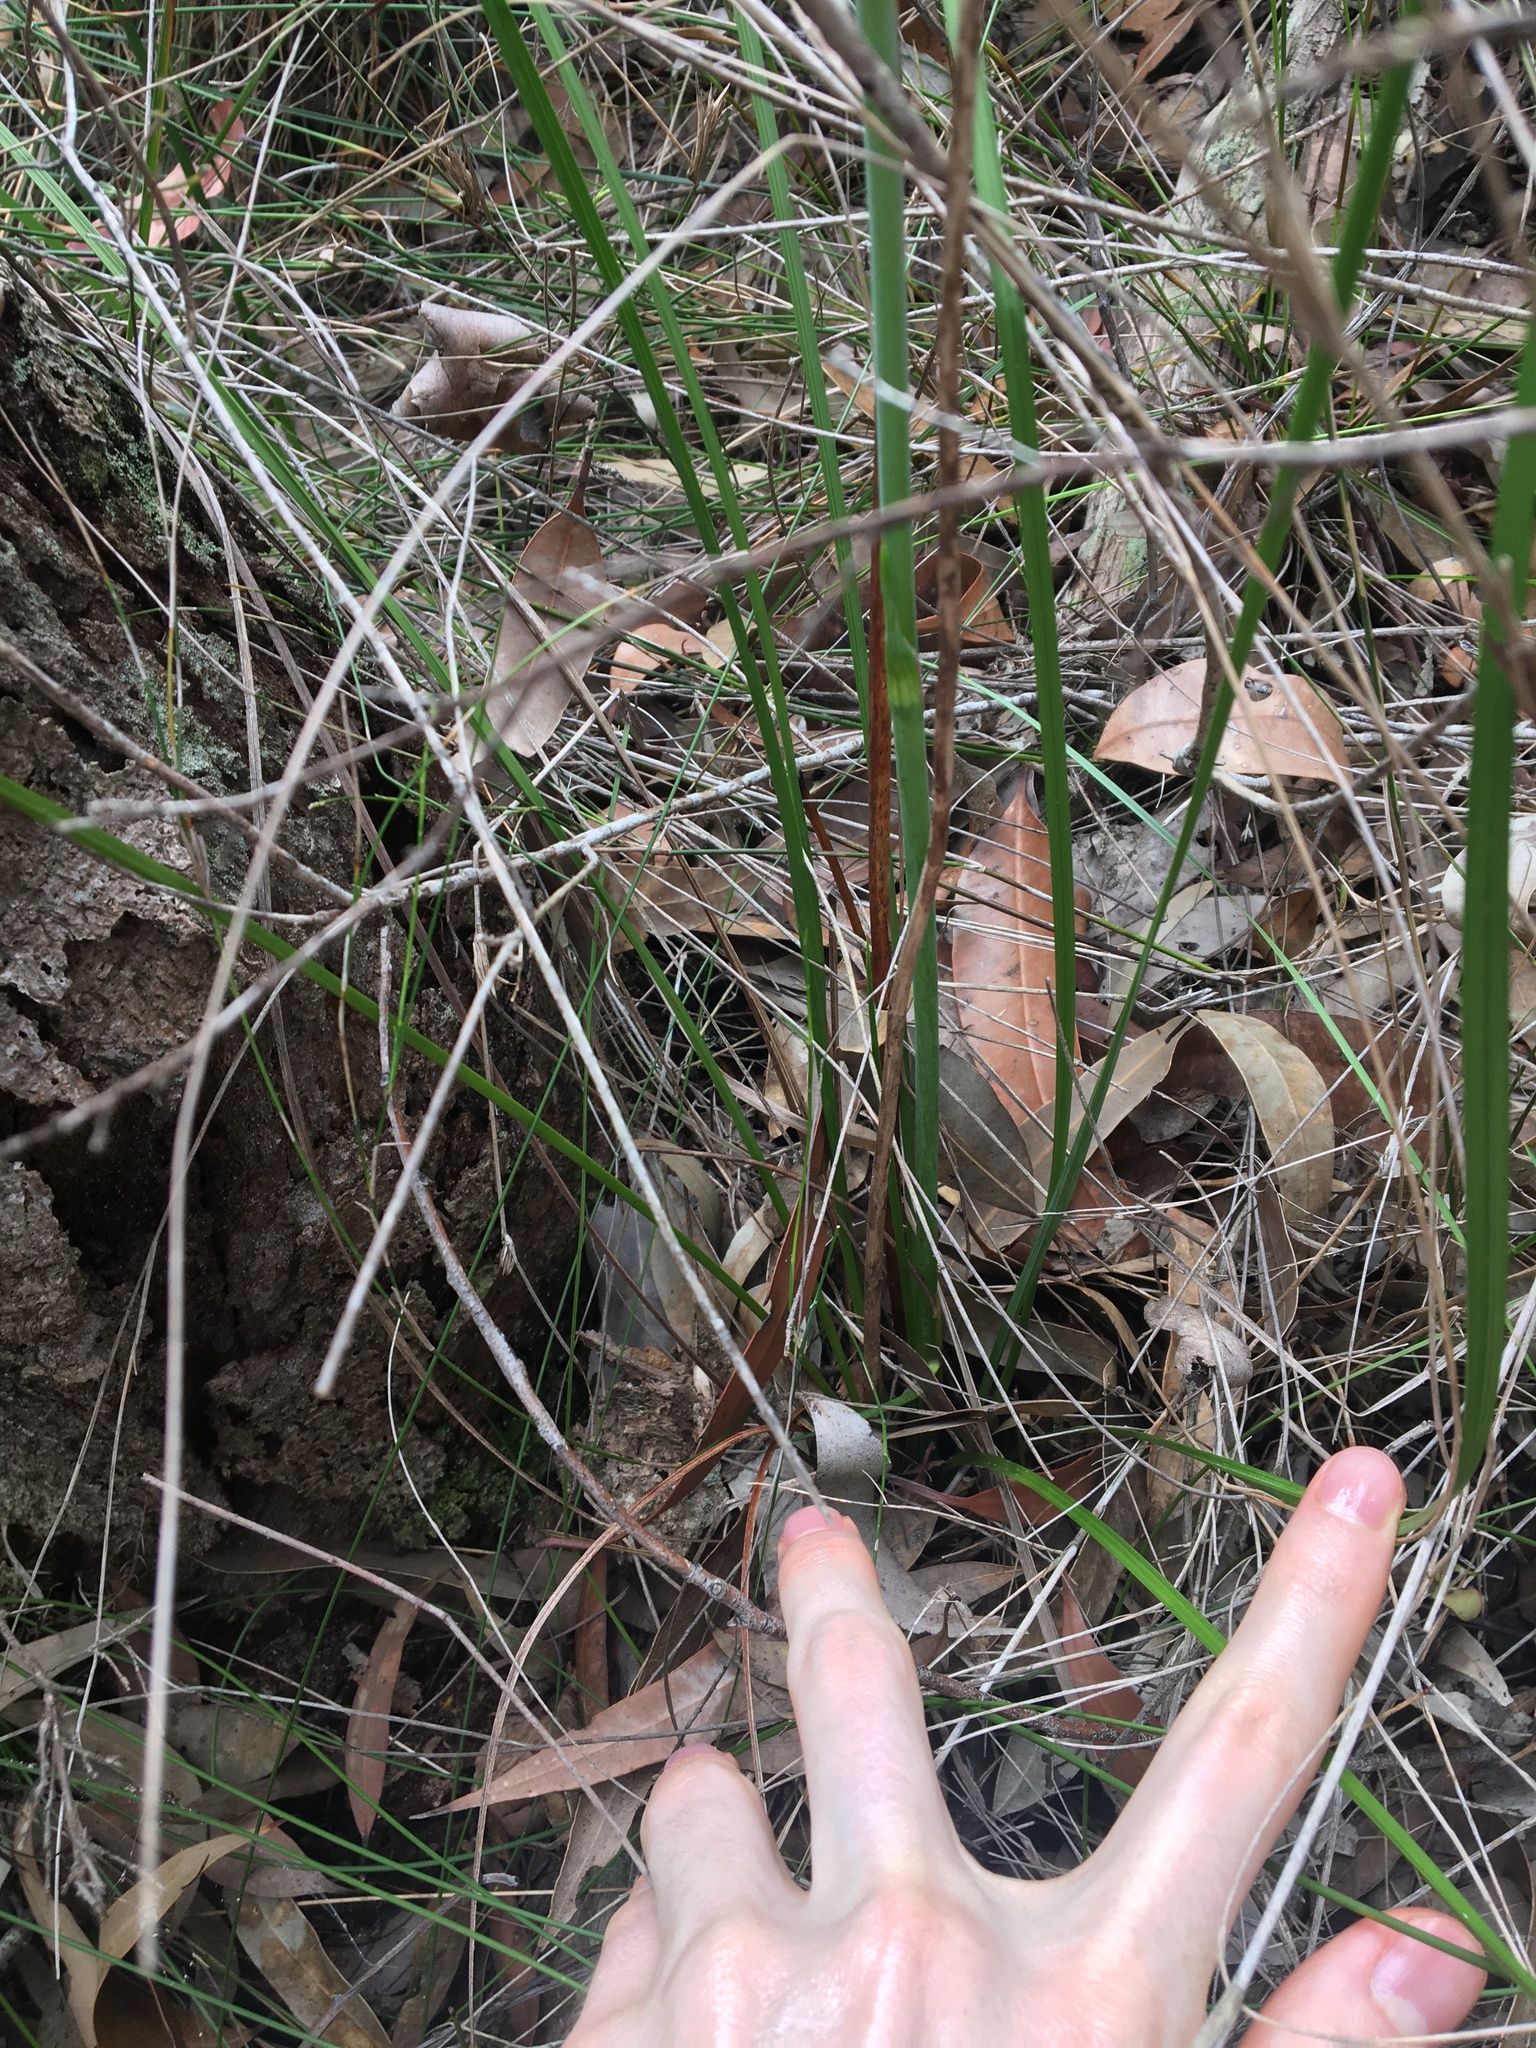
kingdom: Plantae
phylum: Tracheophyta
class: Liliopsida
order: Asparagales
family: Blandfordiaceae
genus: Blandfordia
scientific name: Blandfordia grandiflora
